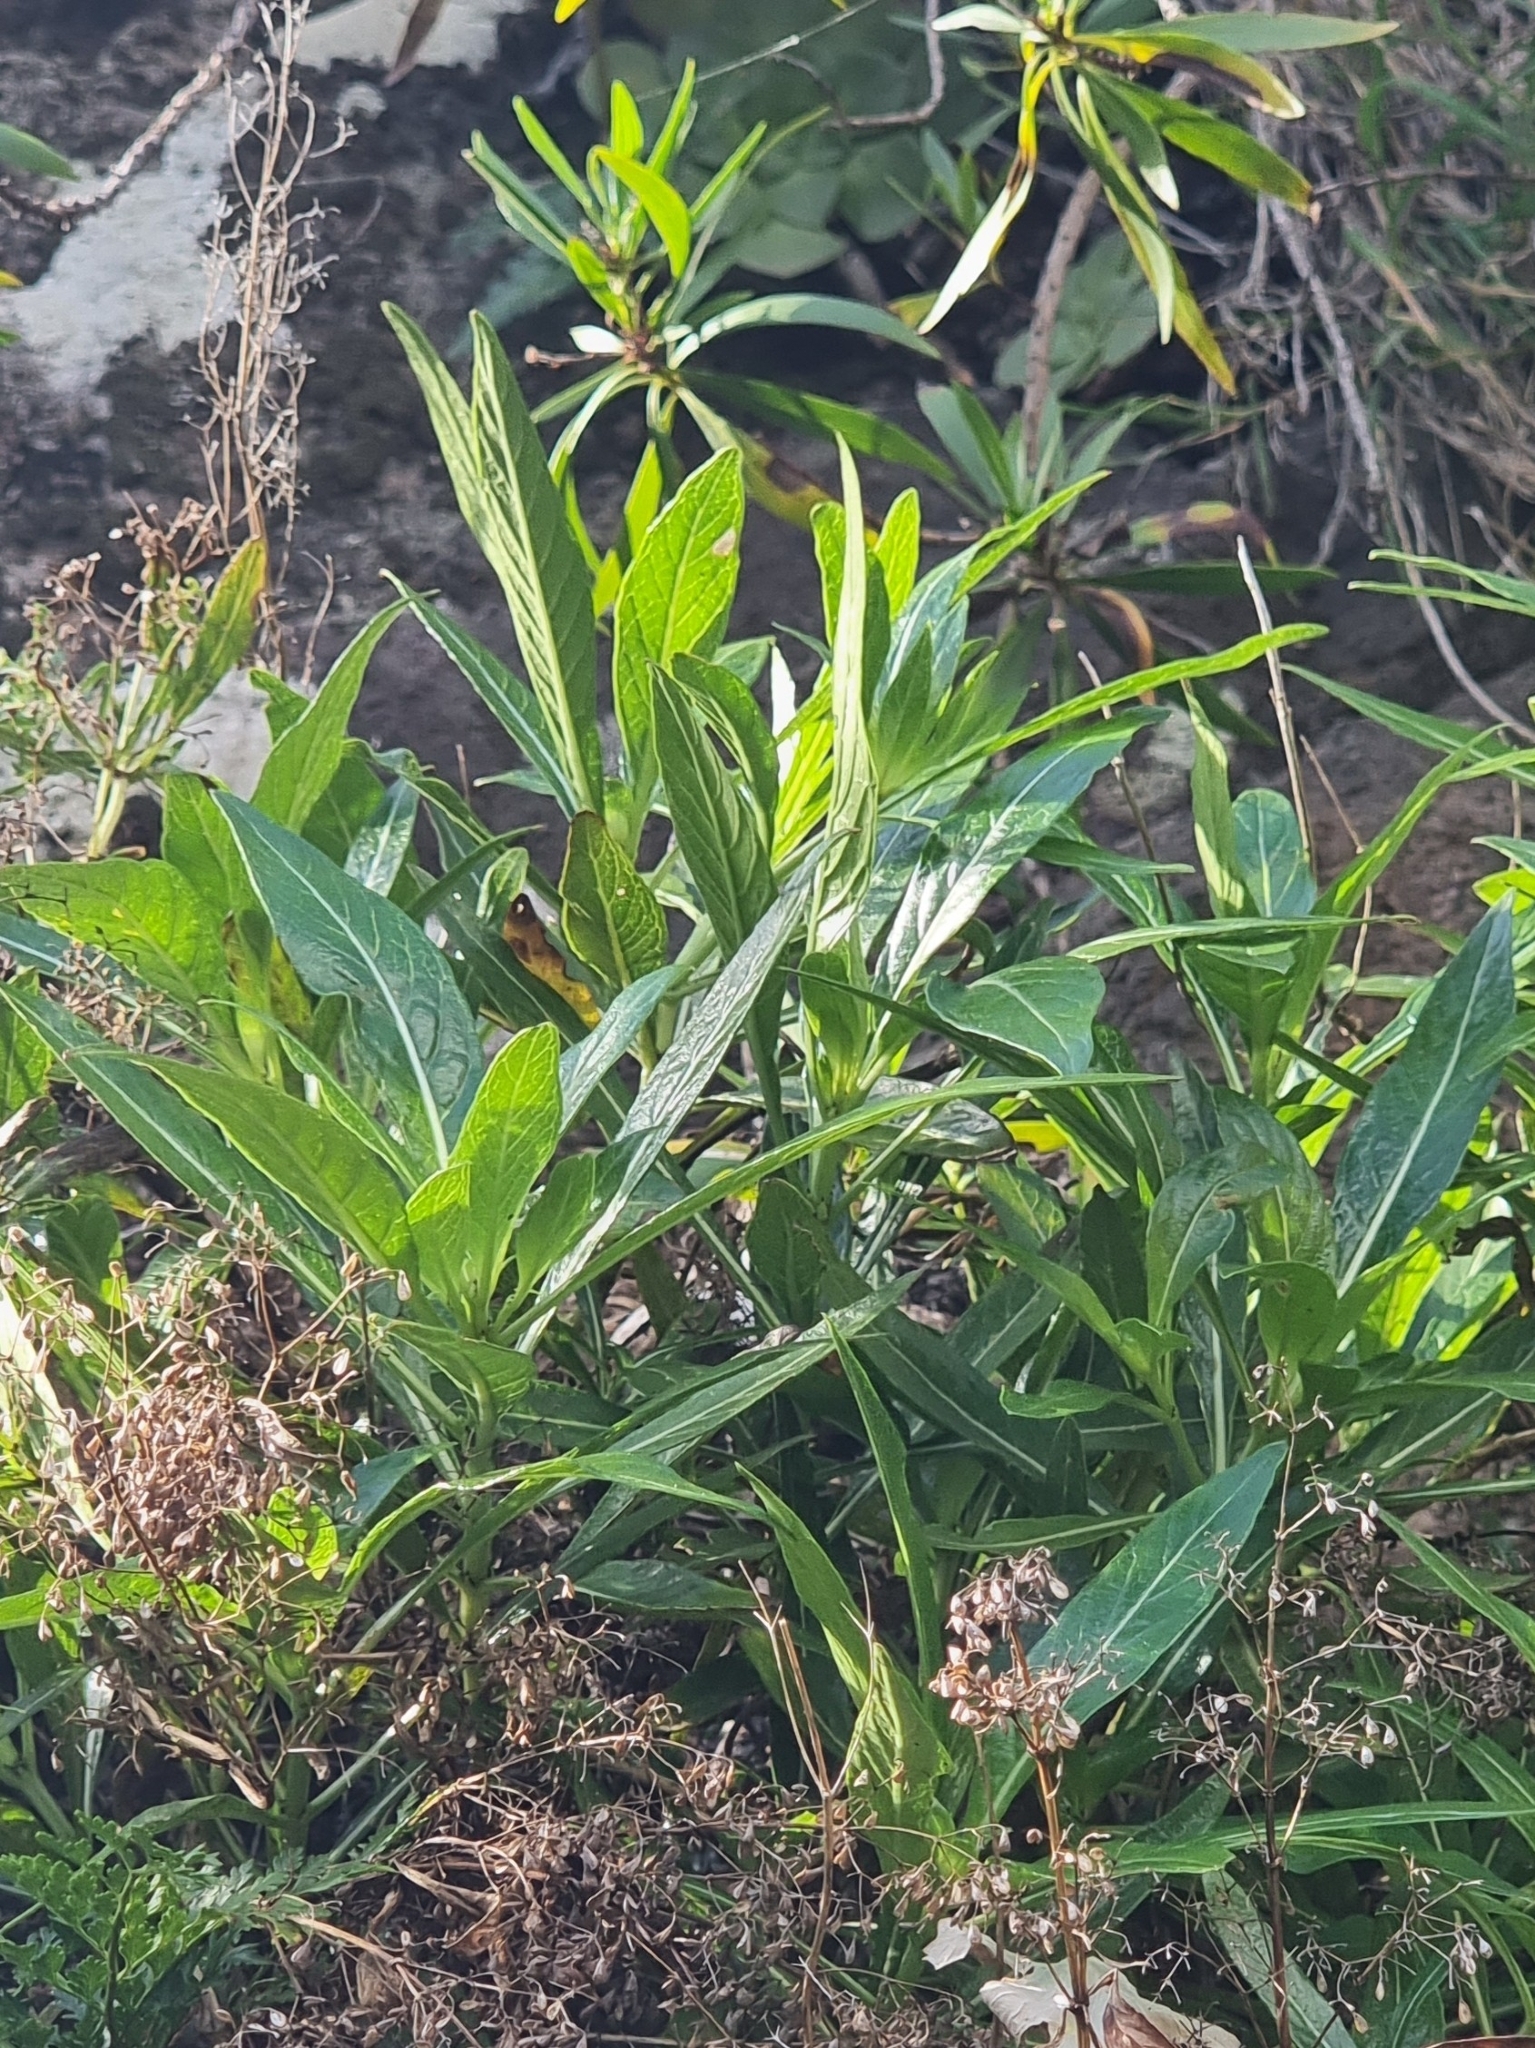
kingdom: Plantae
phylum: Tracheophyta
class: Magnoliopsida
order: Gentianales
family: Rubiaceae
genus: Phyllis
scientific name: Phyllis nobla
